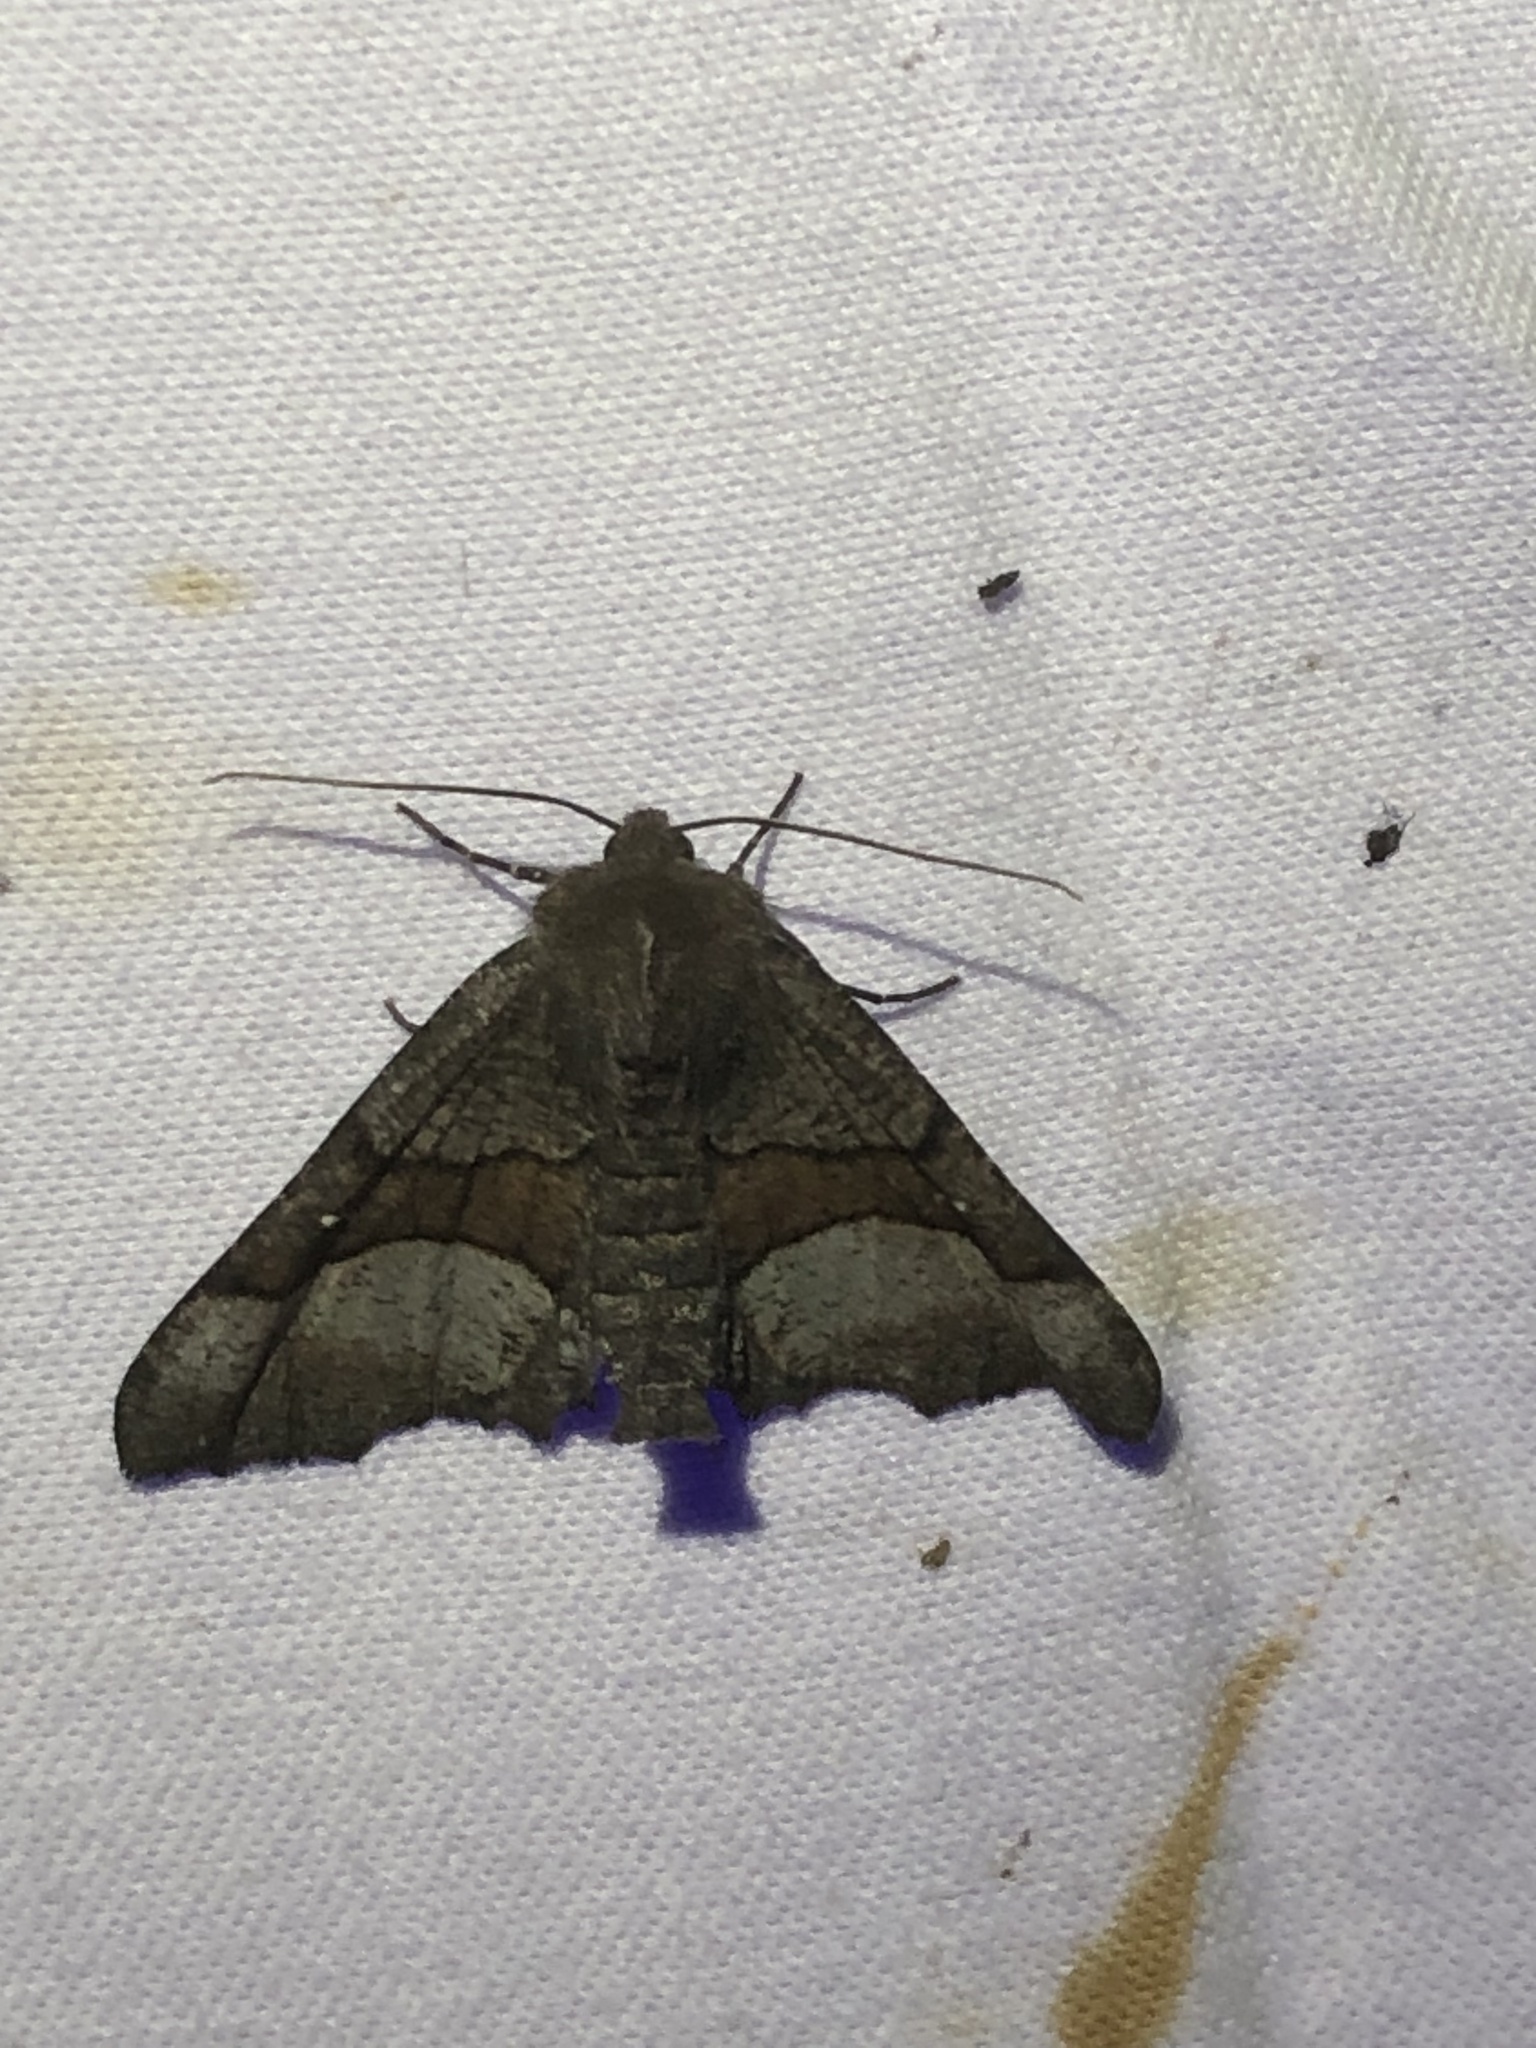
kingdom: Animalia
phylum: Arthropoda
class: Insecta
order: Lepidoptera
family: Geometridae
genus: Pero
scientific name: Pero behrensaria
